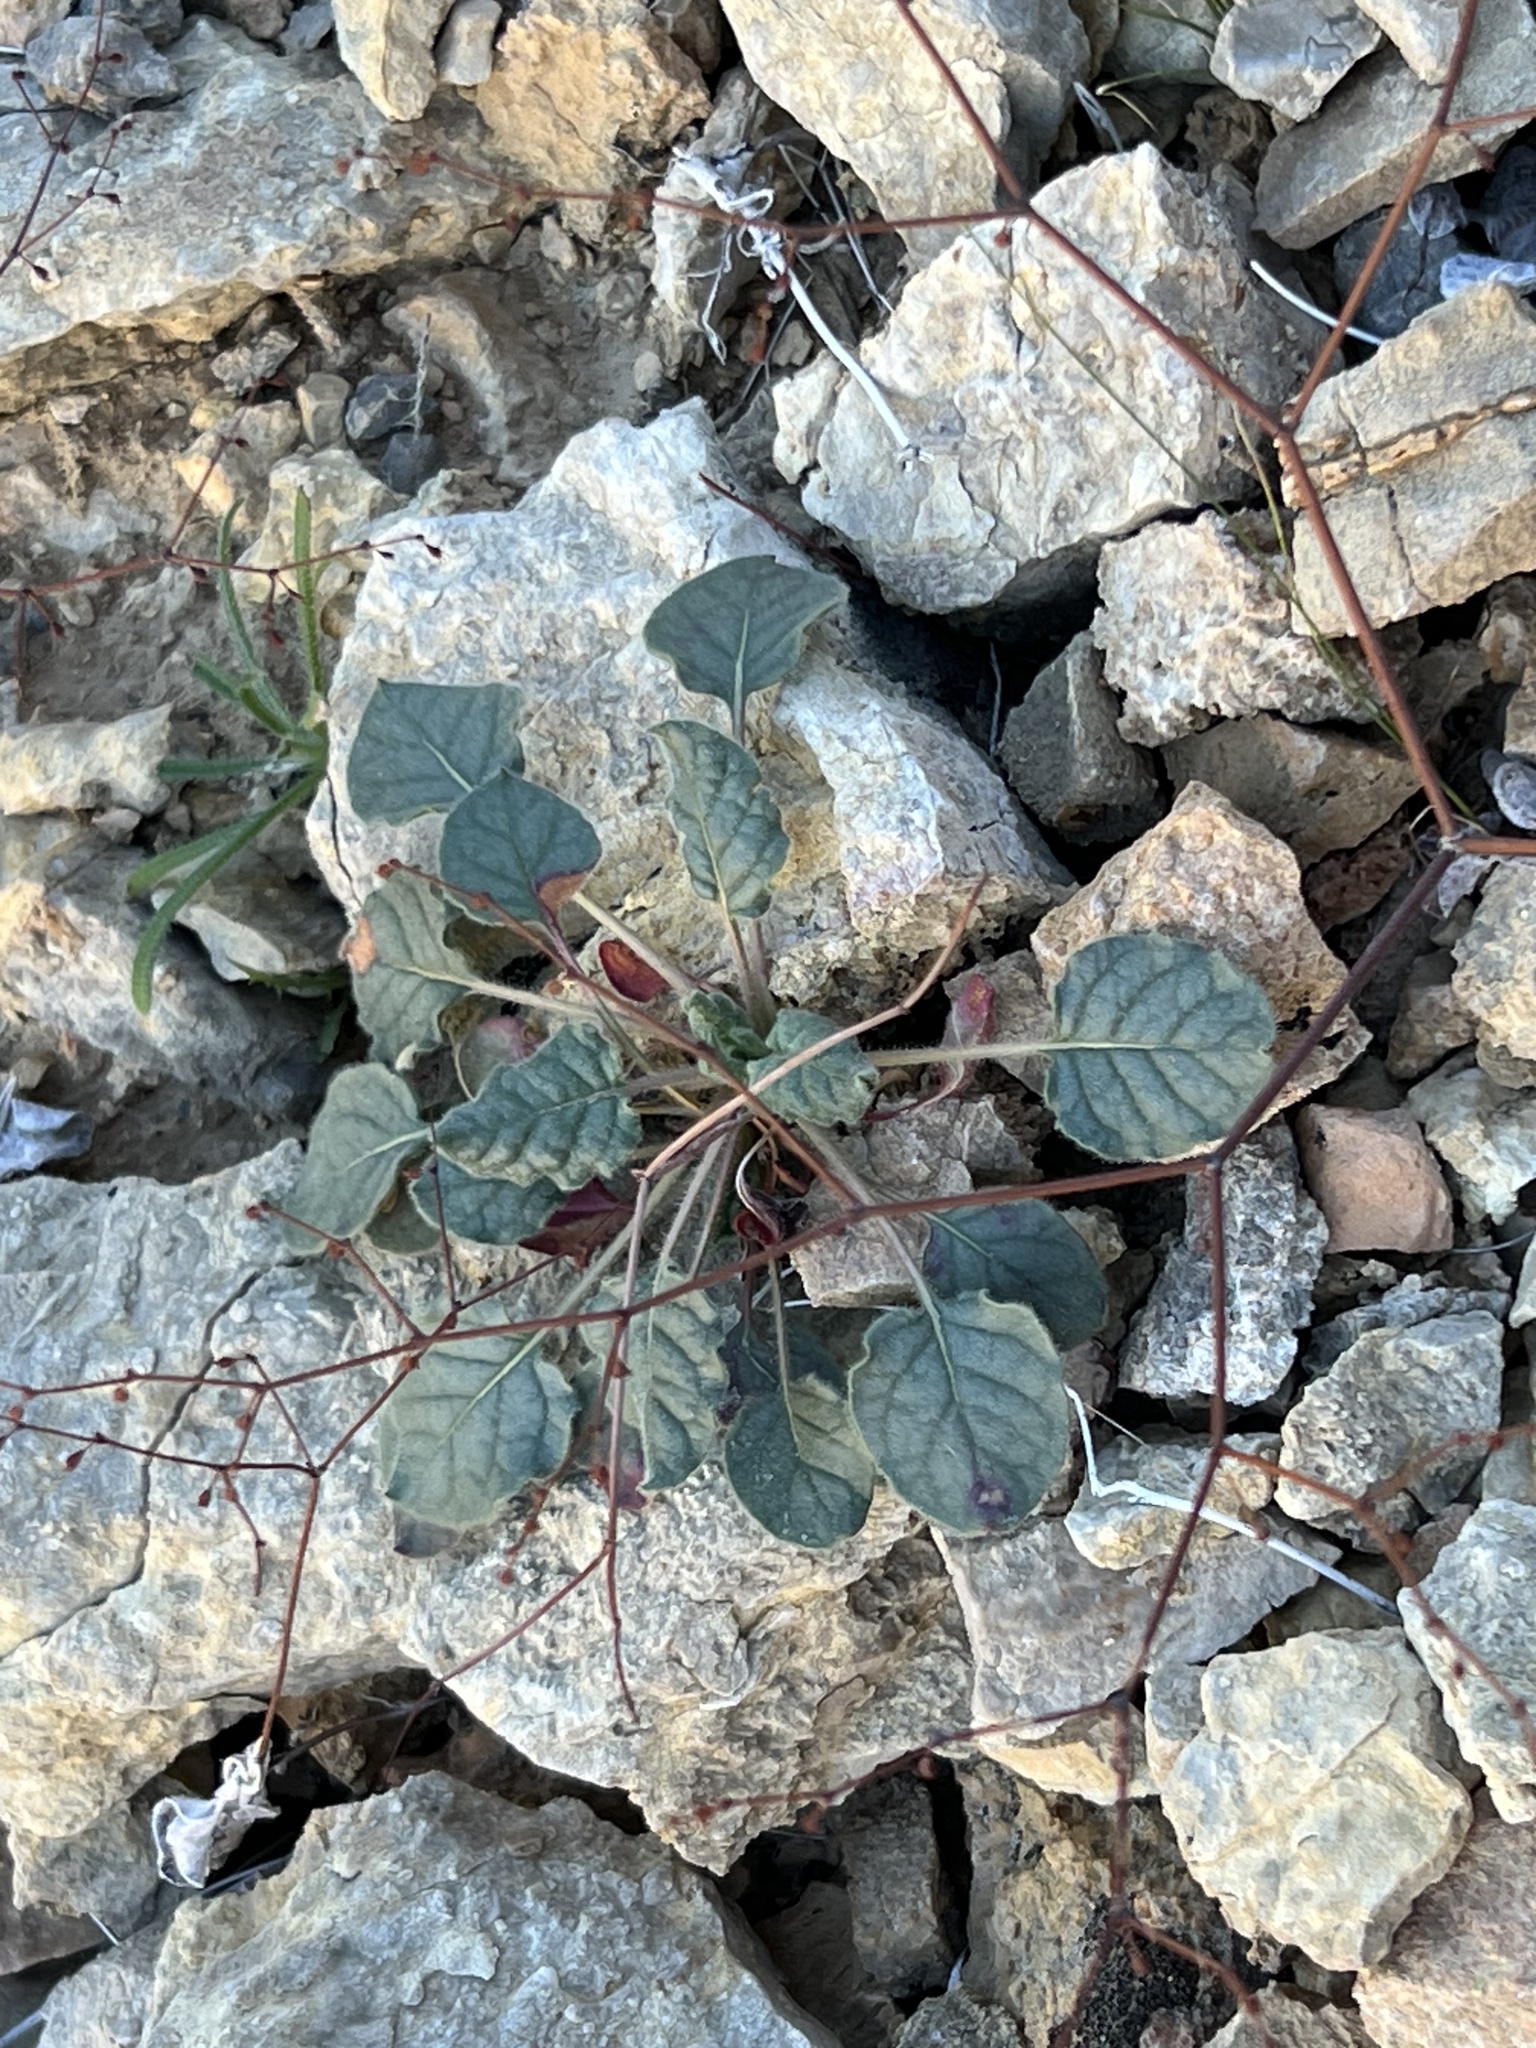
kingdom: Plantae
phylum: Tracheophyta
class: Magnoliopsida
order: Caryophyllales
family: Polygonaceae
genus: Eriogonum
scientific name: Eriogonum inflatum
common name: Desert trumpet
